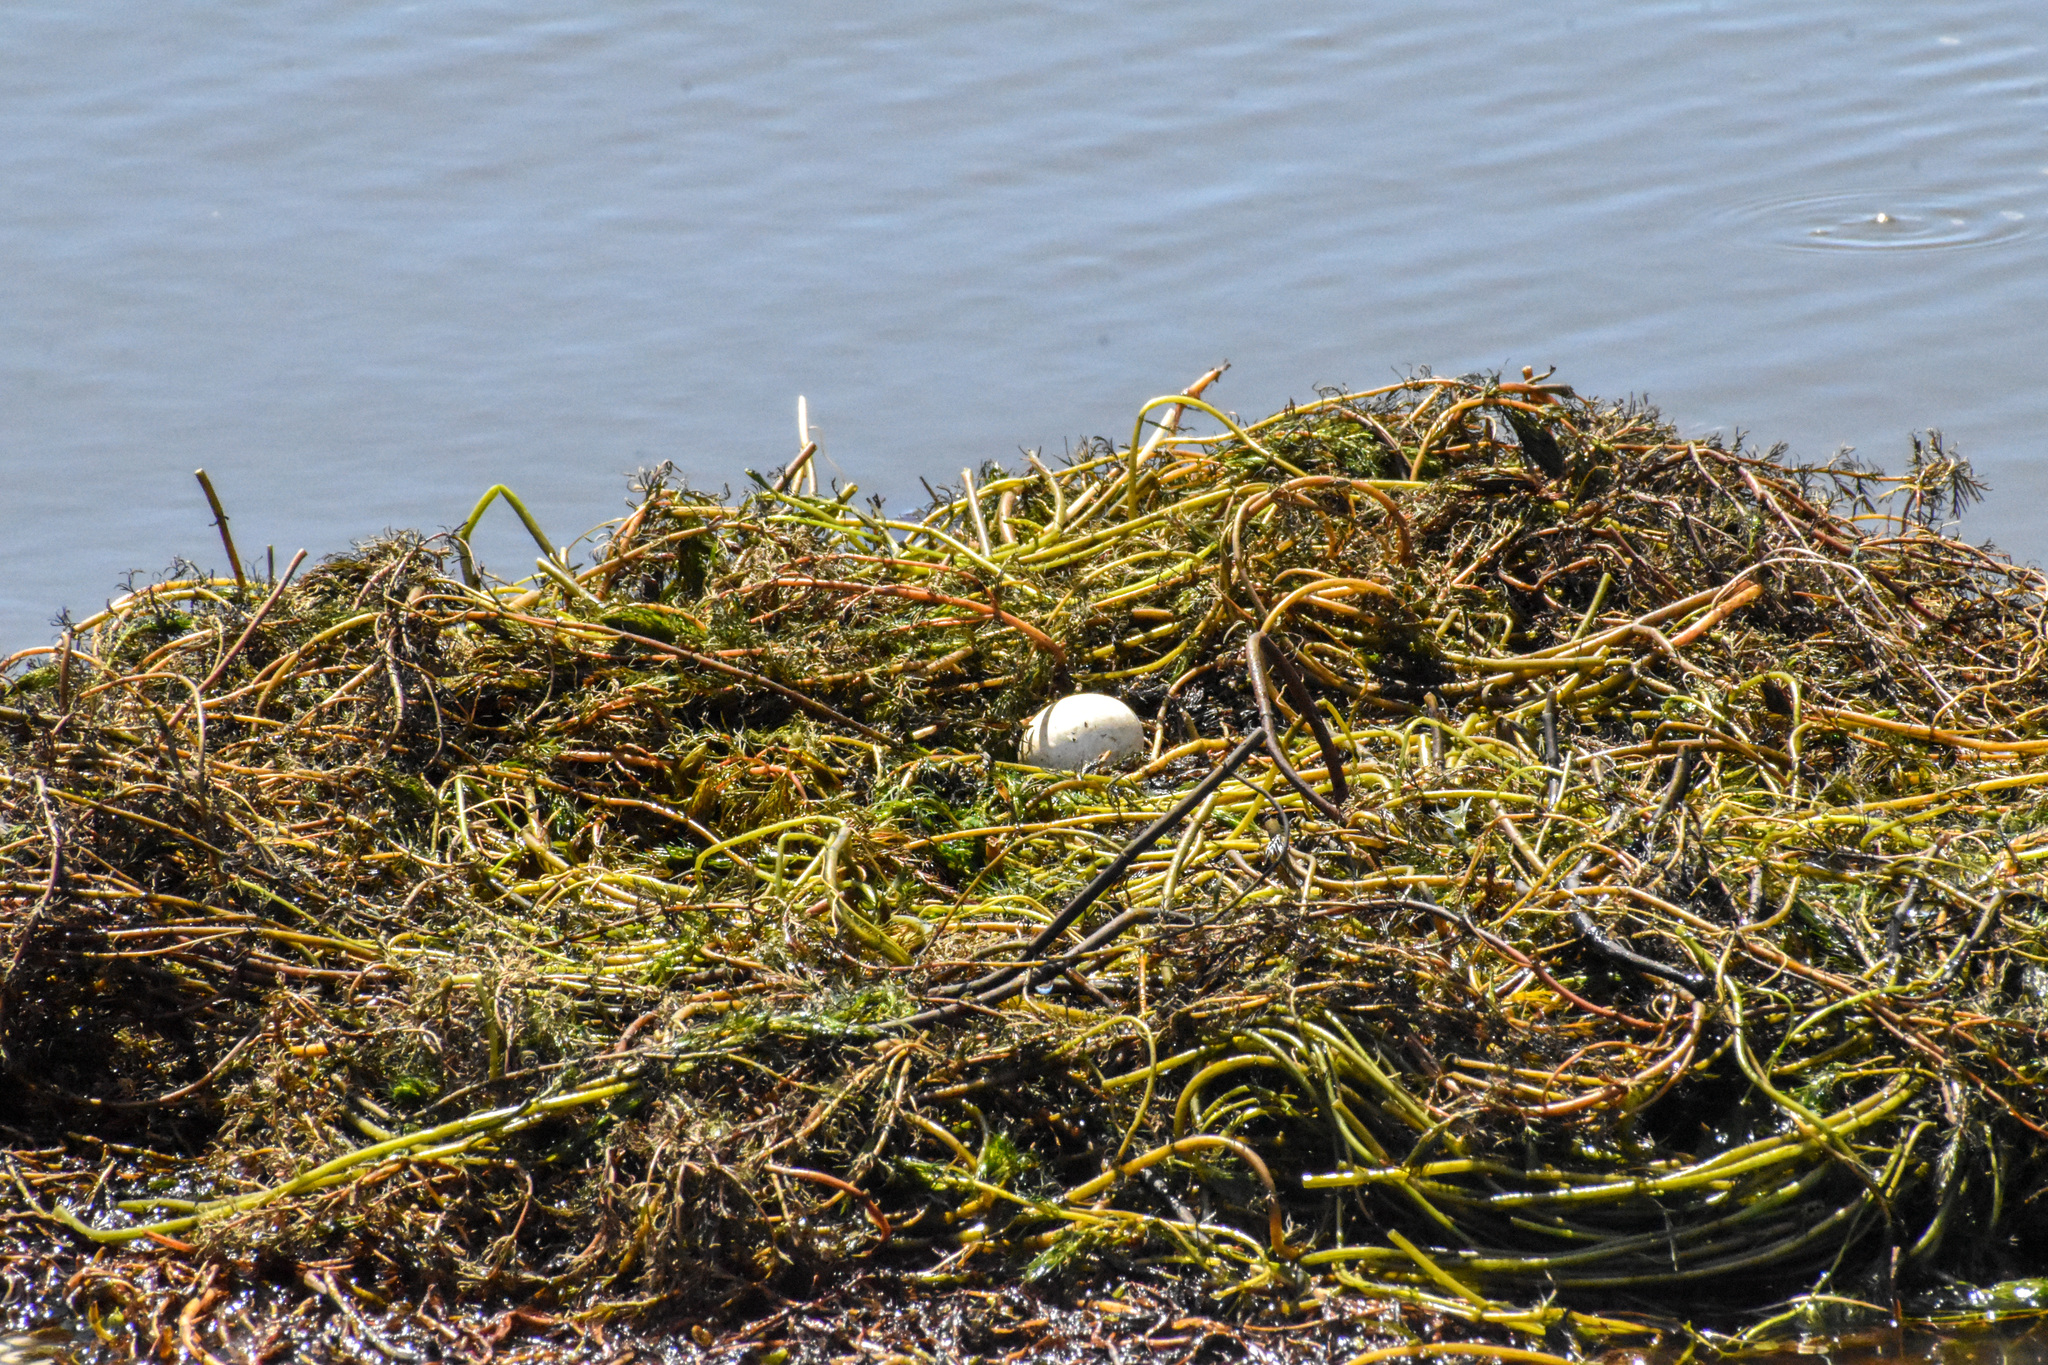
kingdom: Animalia
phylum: Chordata
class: Aves
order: Podicipediformes
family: Podicipedidae
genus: Podiceps
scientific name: Podiceps gallardoi
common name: Hooded grebe
